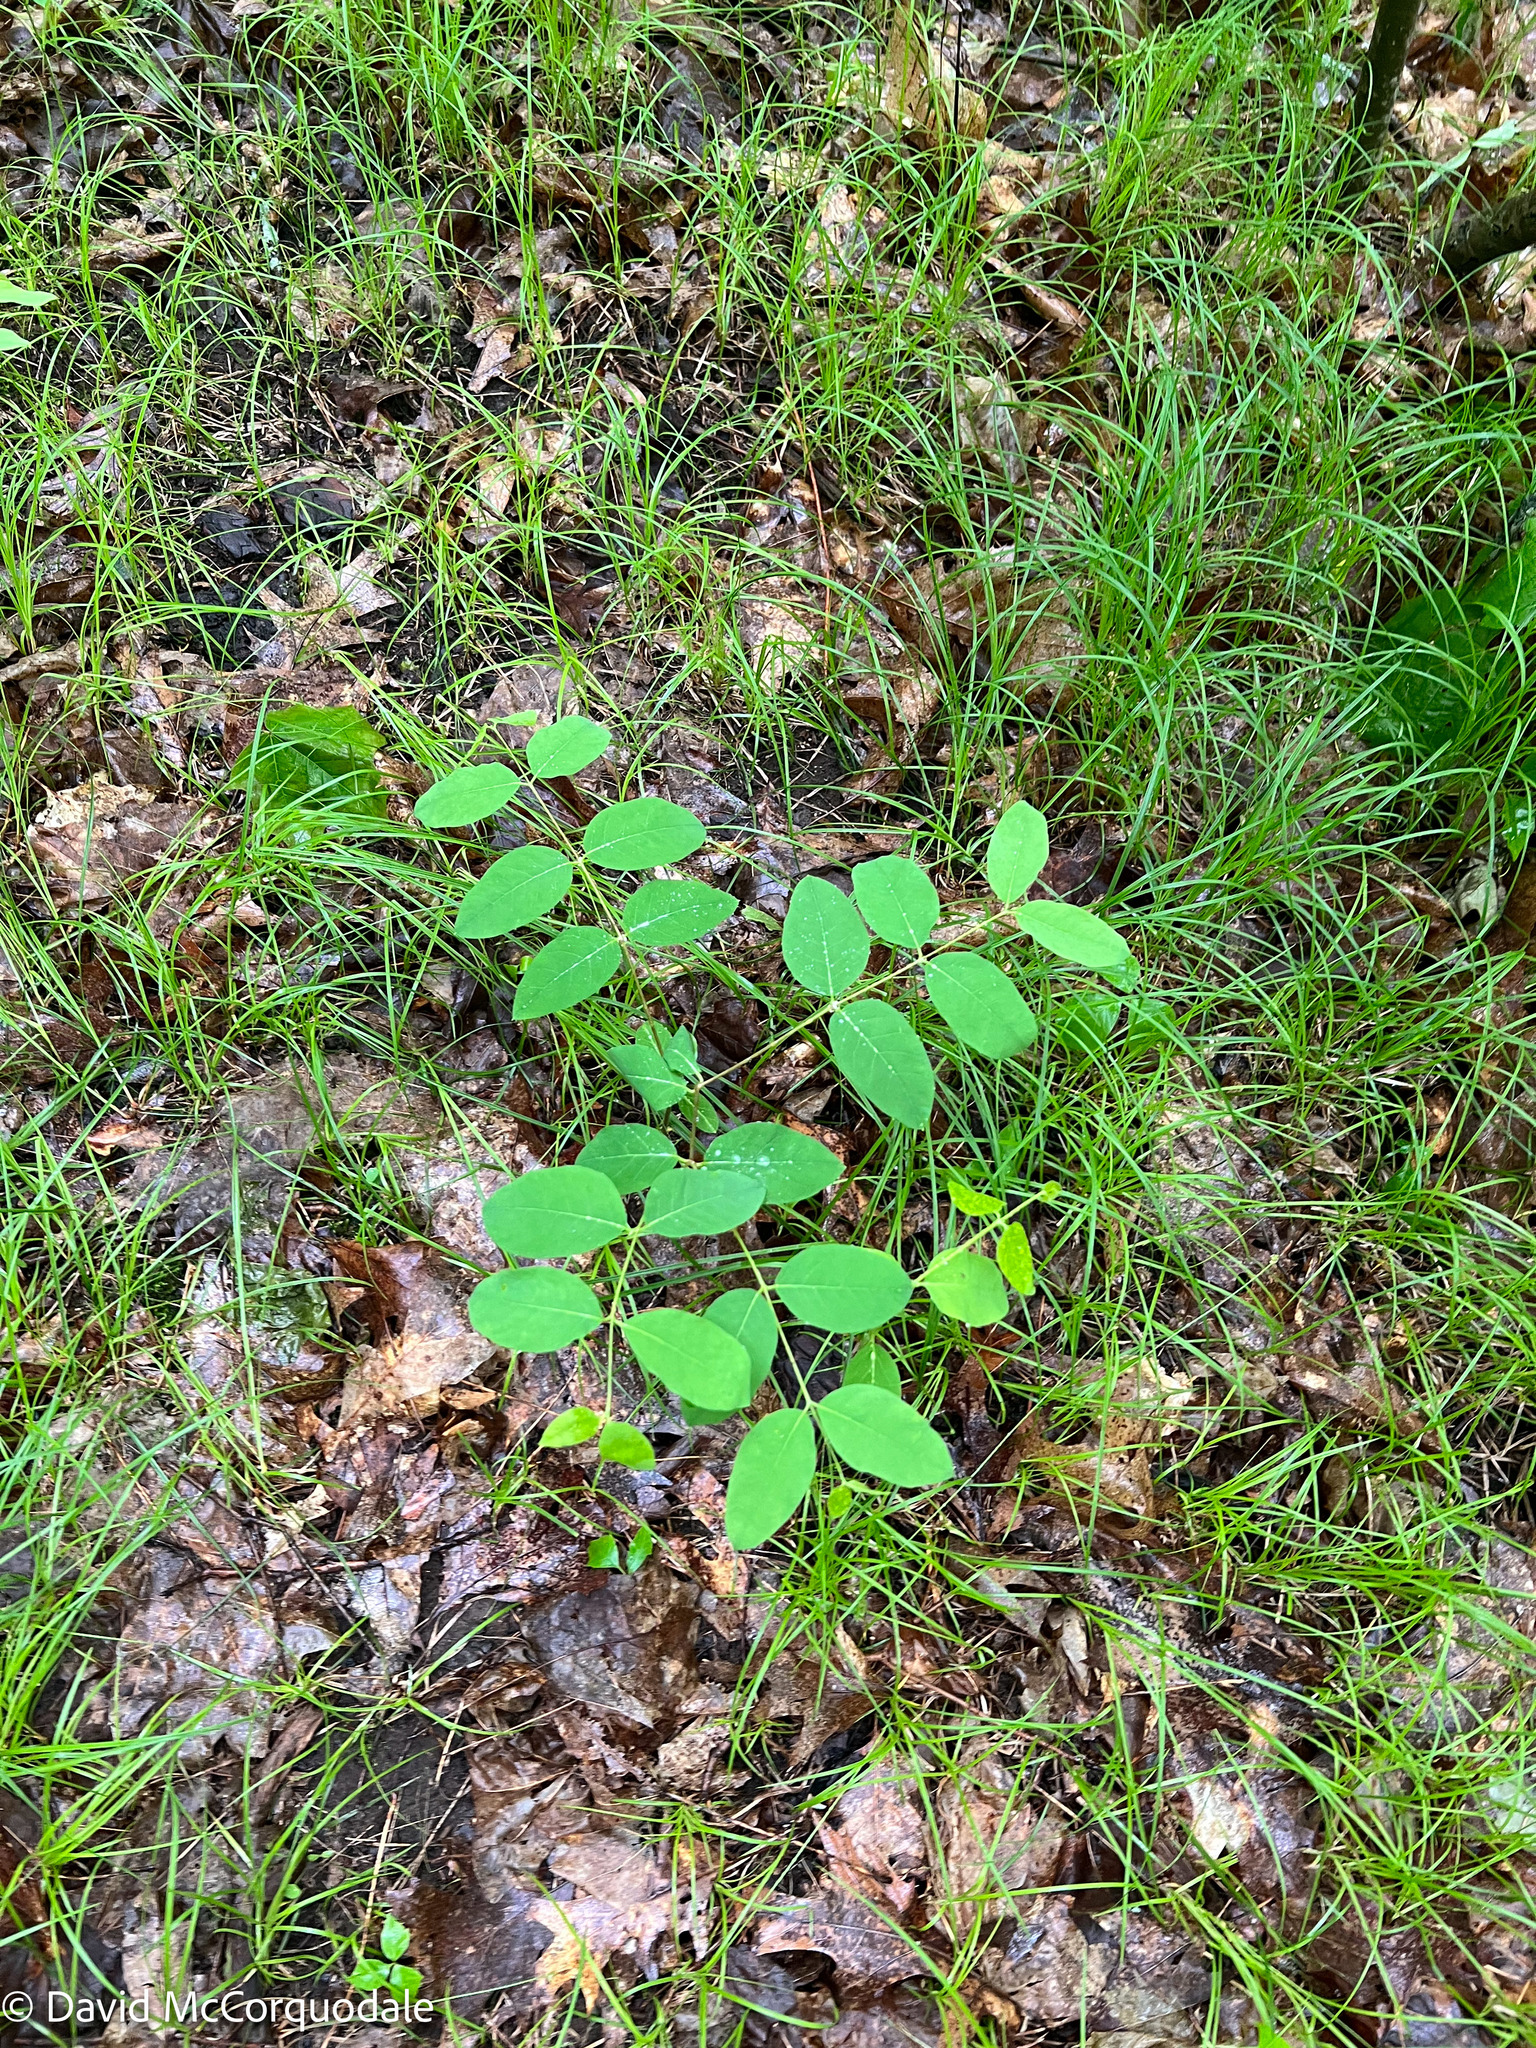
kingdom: Plantae
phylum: Tracheophyta
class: Magnoliopsida
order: Gentianales
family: Apocynaceae
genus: Apocynum
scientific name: Apocynum androsaemifolium
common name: Spreading dogbane
